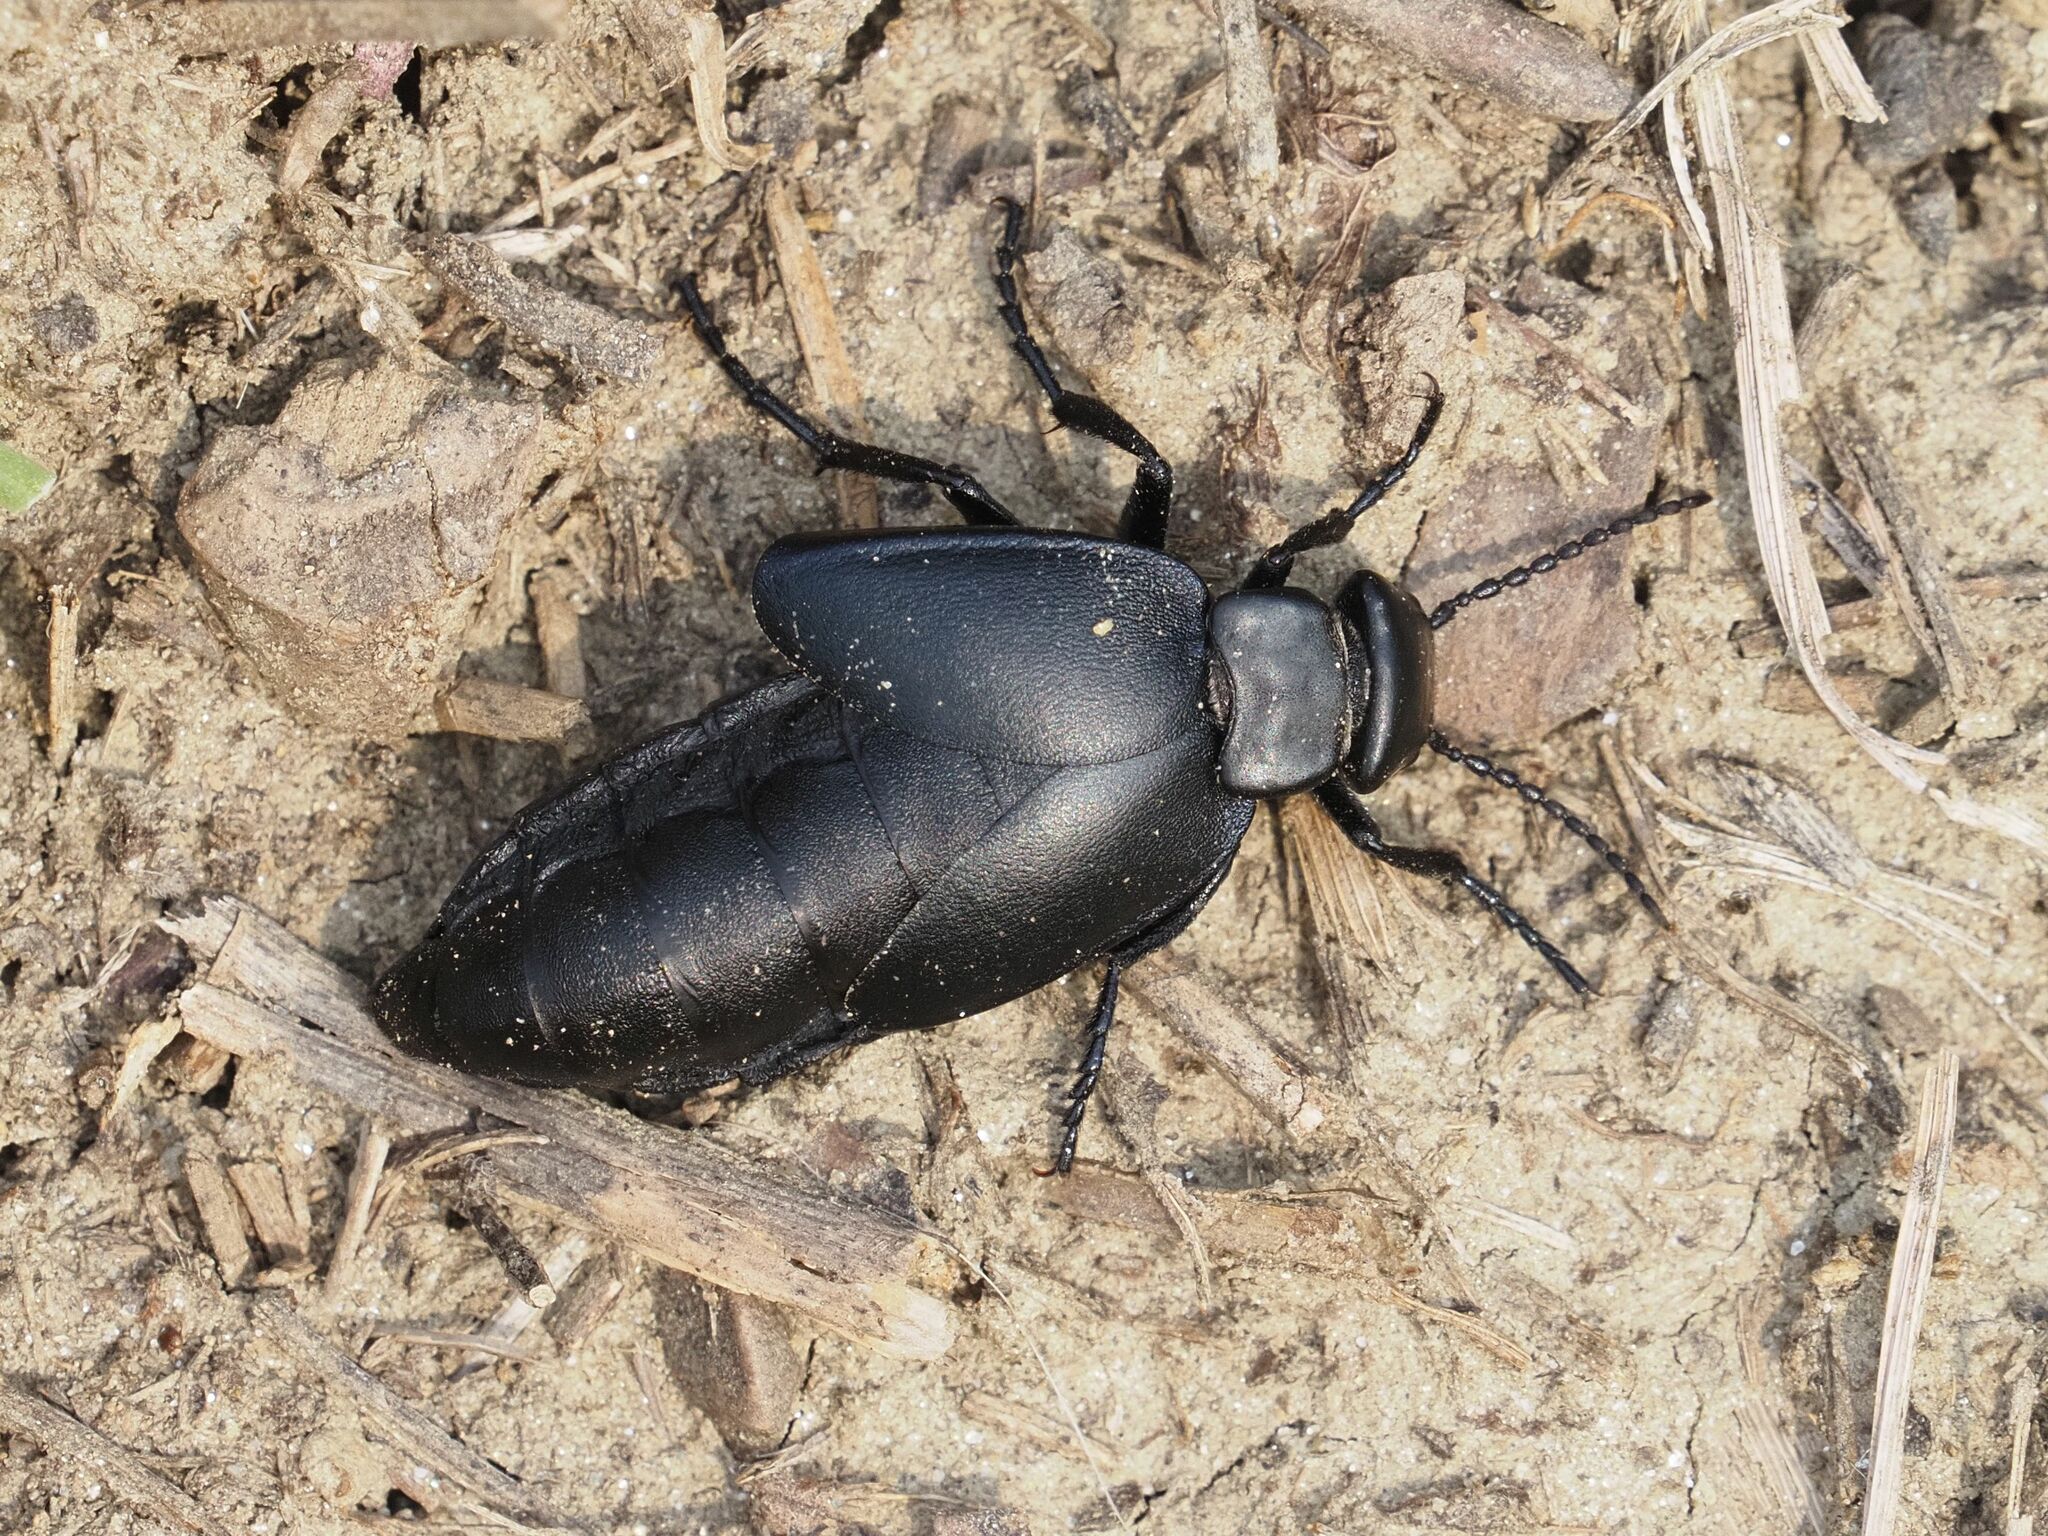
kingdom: Animalia
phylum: Arthropoda
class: Insecta
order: Coleoptera
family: Meloidae
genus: Meloe
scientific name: Meloe uralensis
